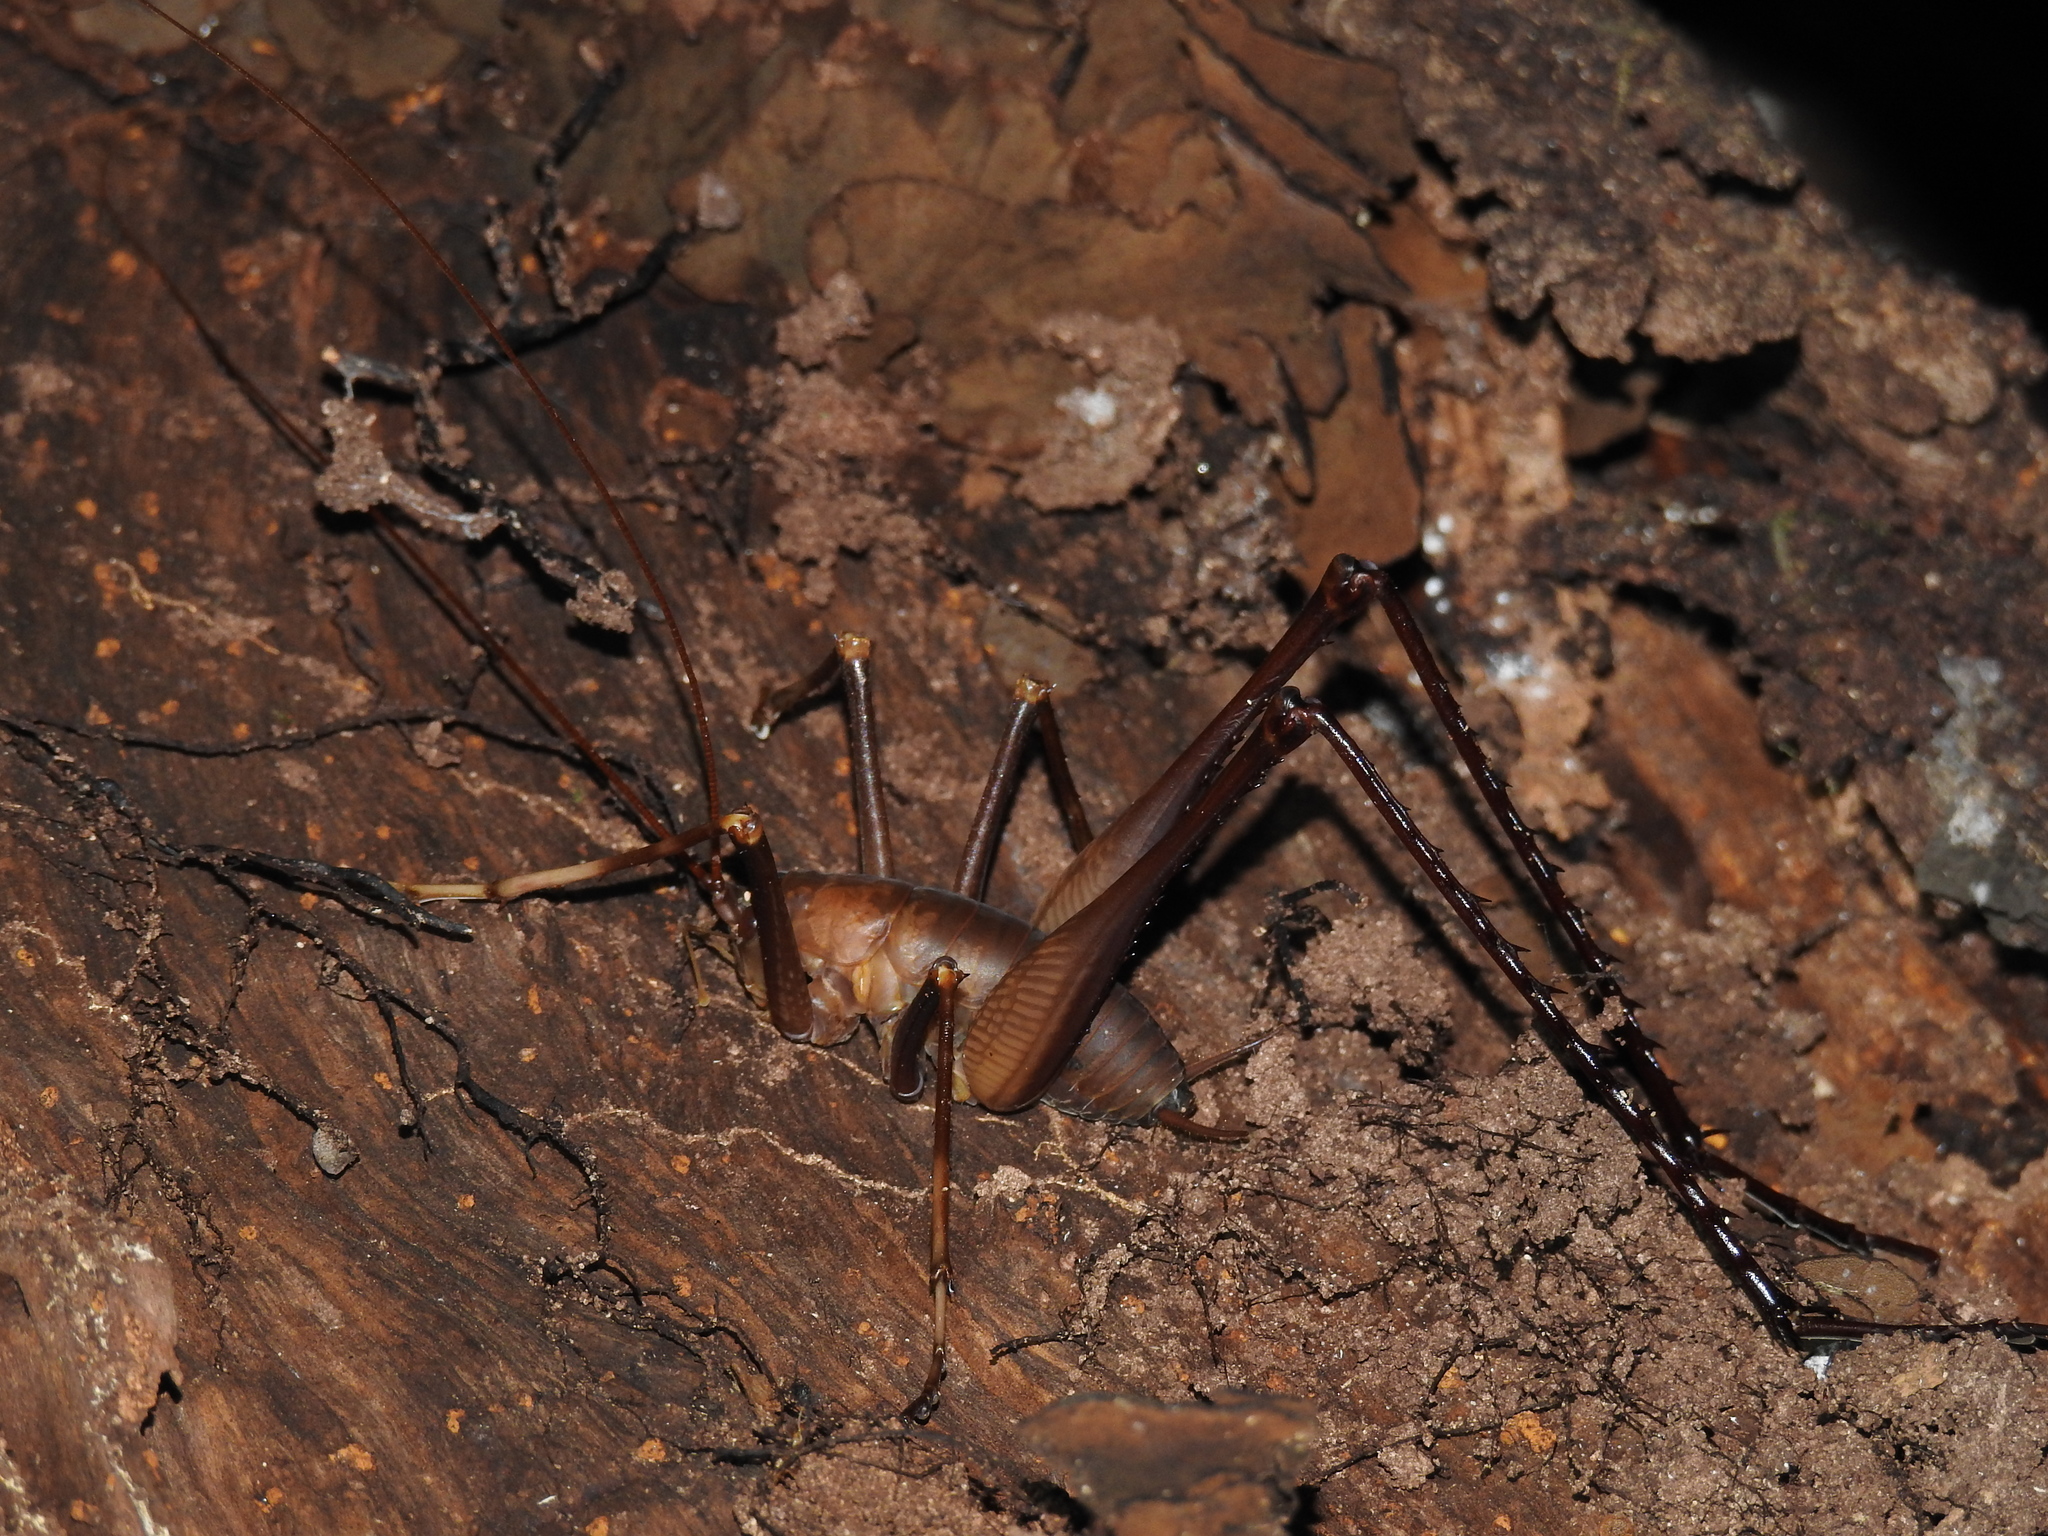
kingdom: Animalia
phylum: Arthropoda
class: Insecta
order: Orthoptera
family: Rhaphidophoridae
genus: Pachyrhamma
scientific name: Pachyrhamma longipes
